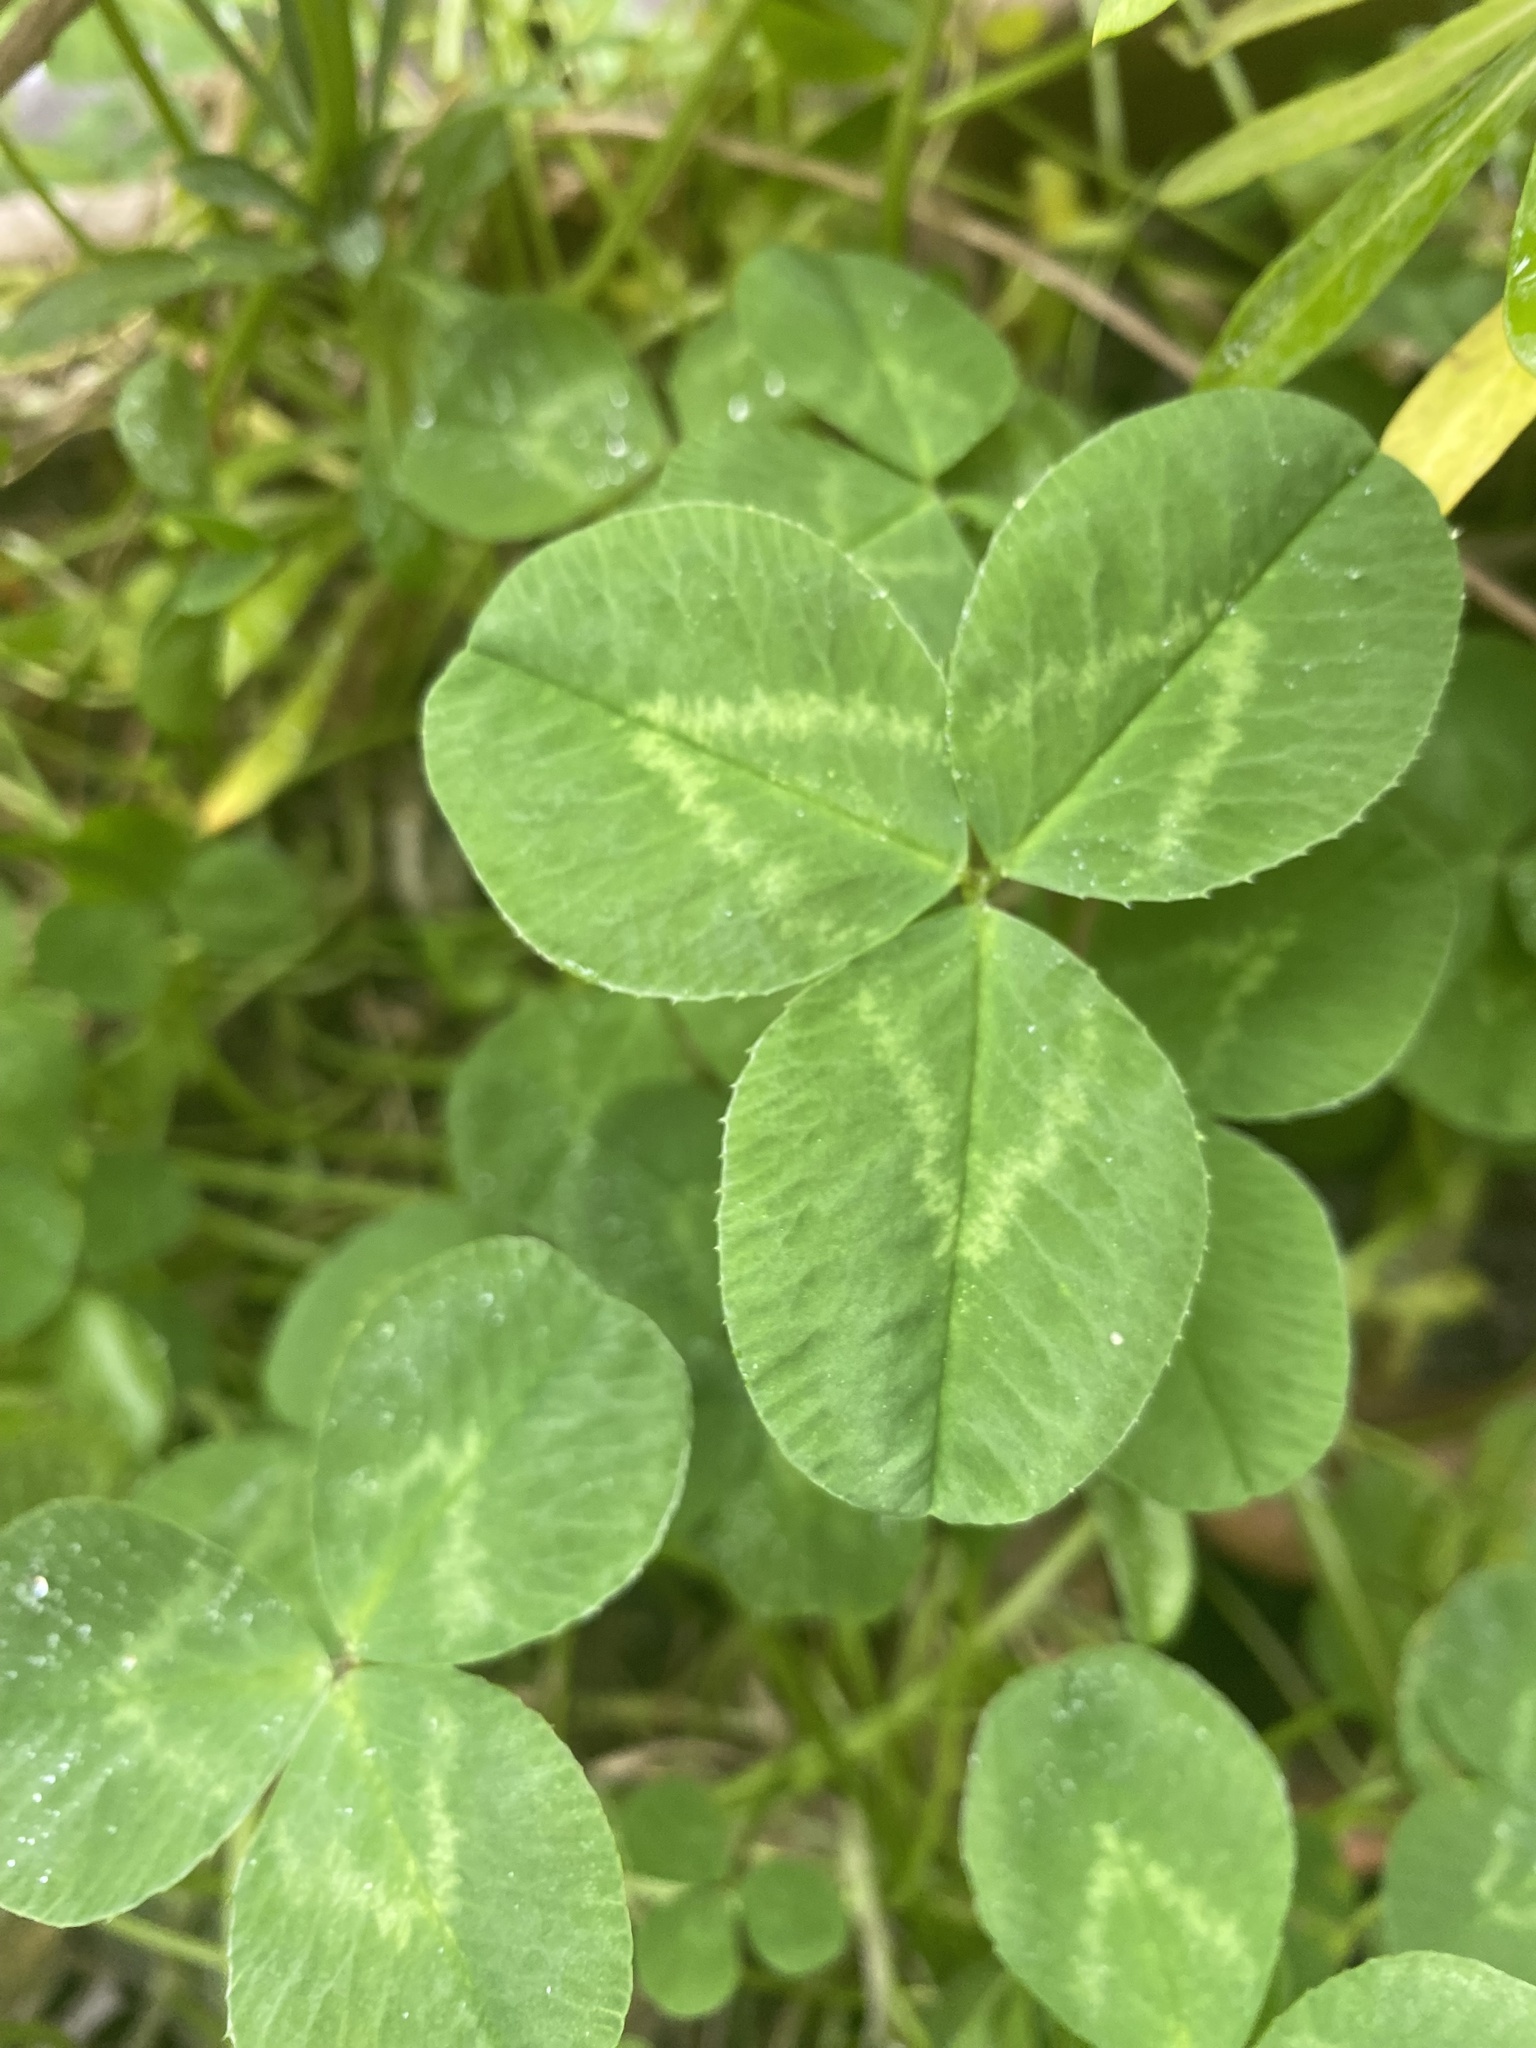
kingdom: Plantae
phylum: Tracheophyta
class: Magnoliopsida
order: Fabales
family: Fabaceae
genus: Trifolium
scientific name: Trifolium repens
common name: White clover
